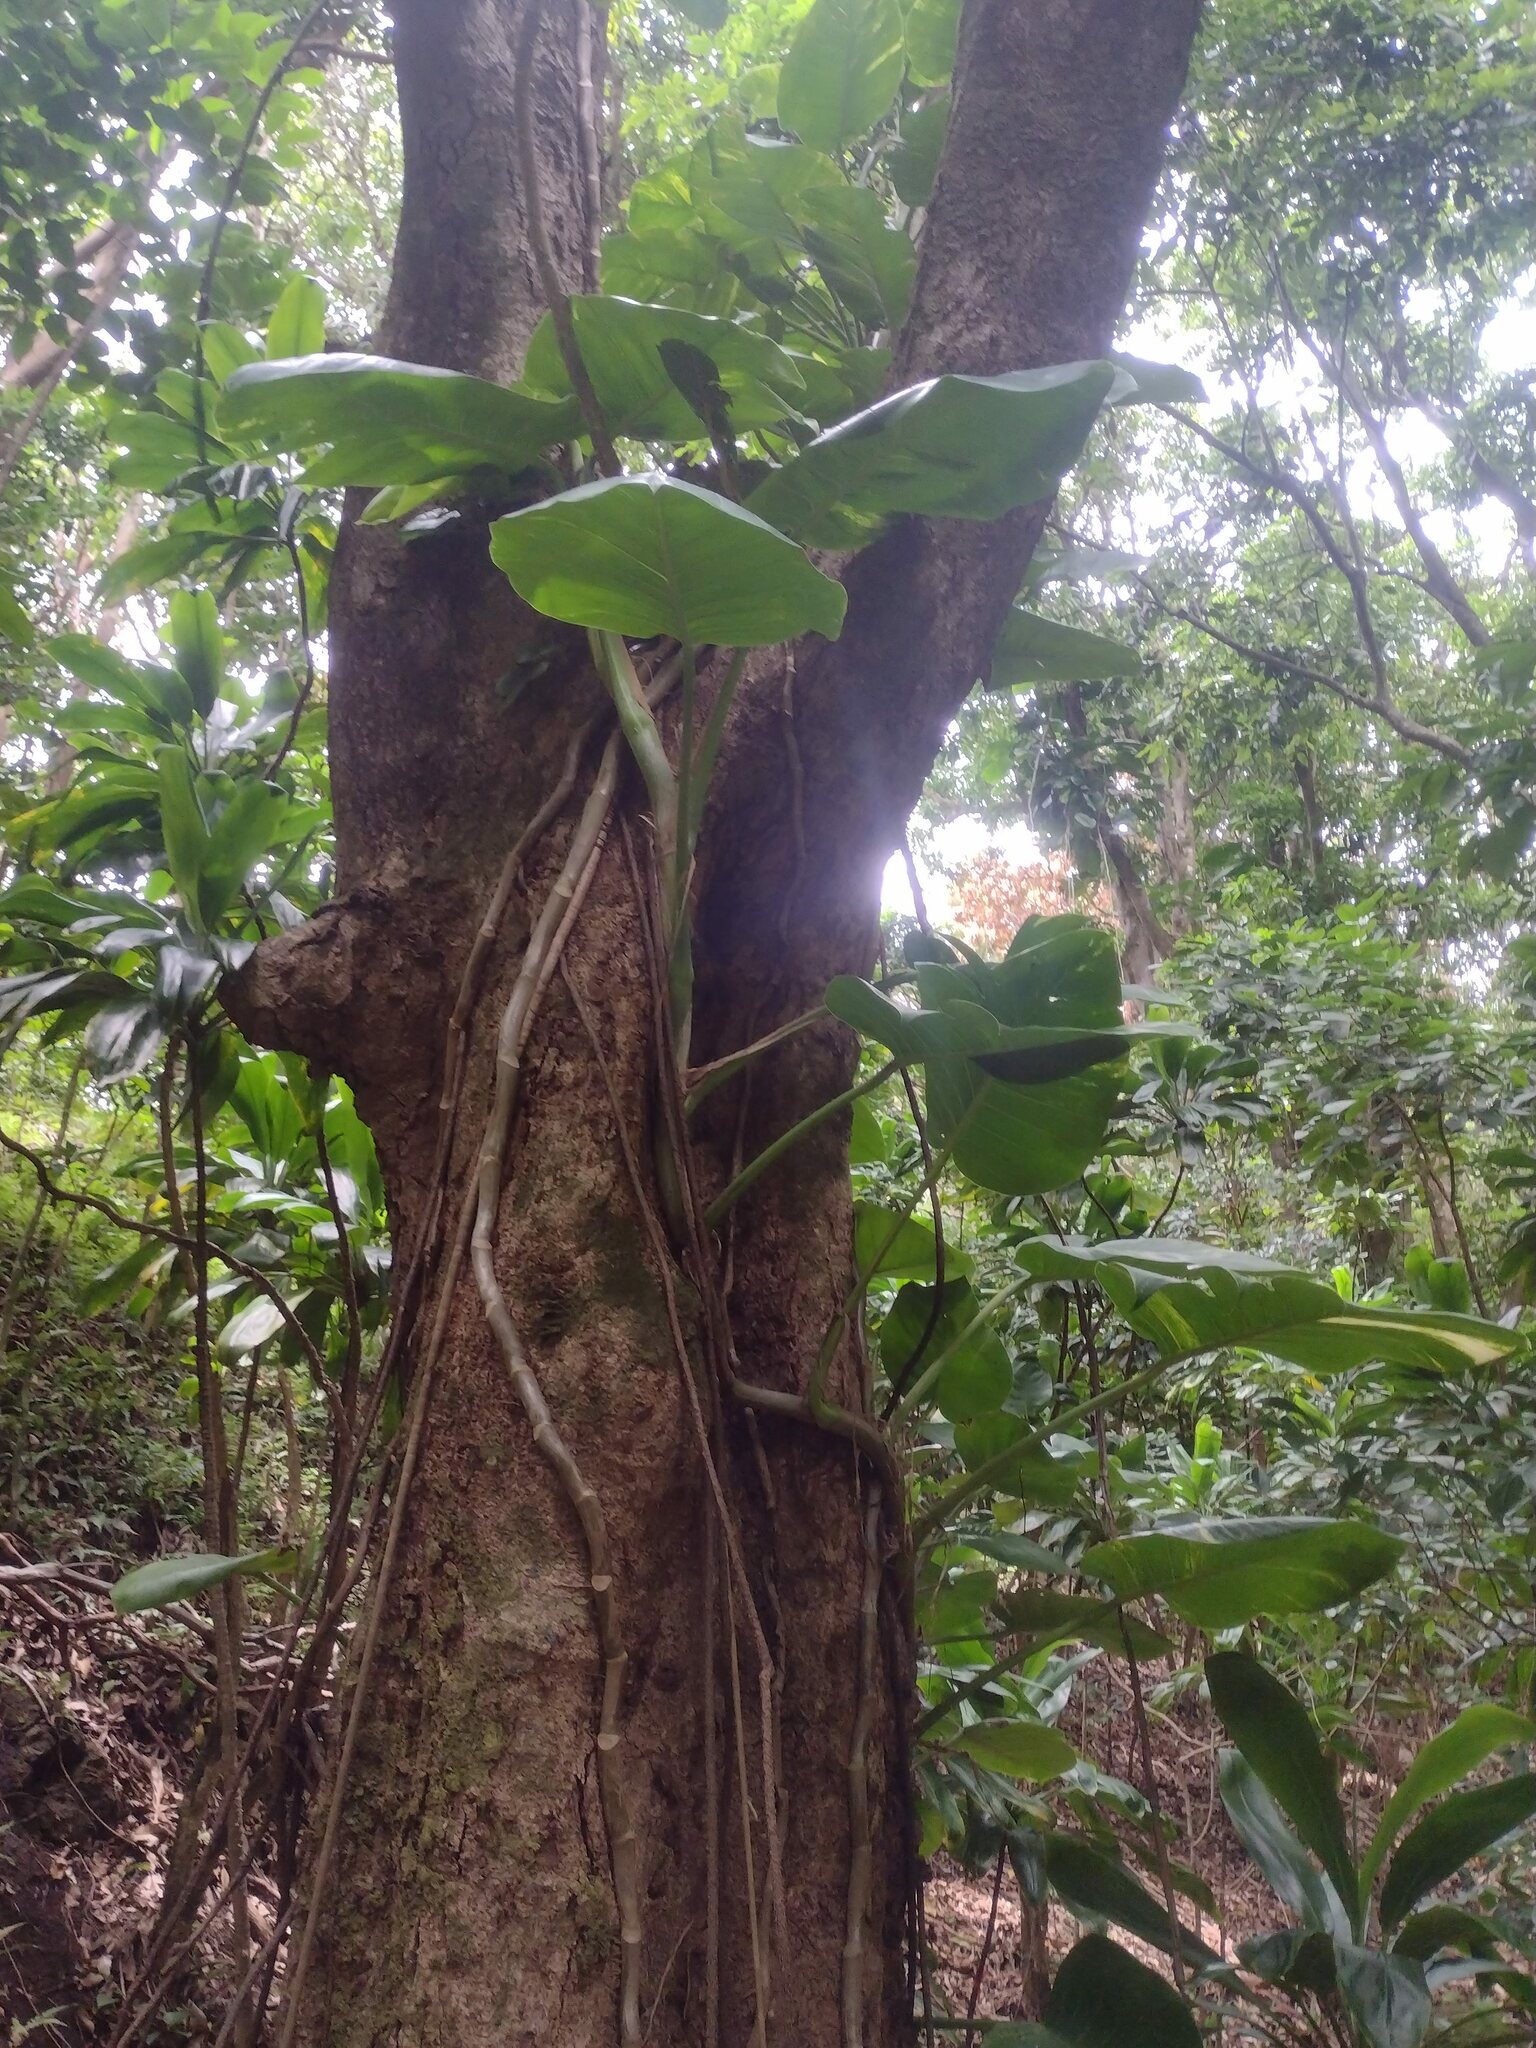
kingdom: Plantae
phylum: Tracheophyta
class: Liliopsida
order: Alismatales
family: Araceae
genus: Epipremnum
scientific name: Epipremnum aureum
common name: Golden hunter's-robe
